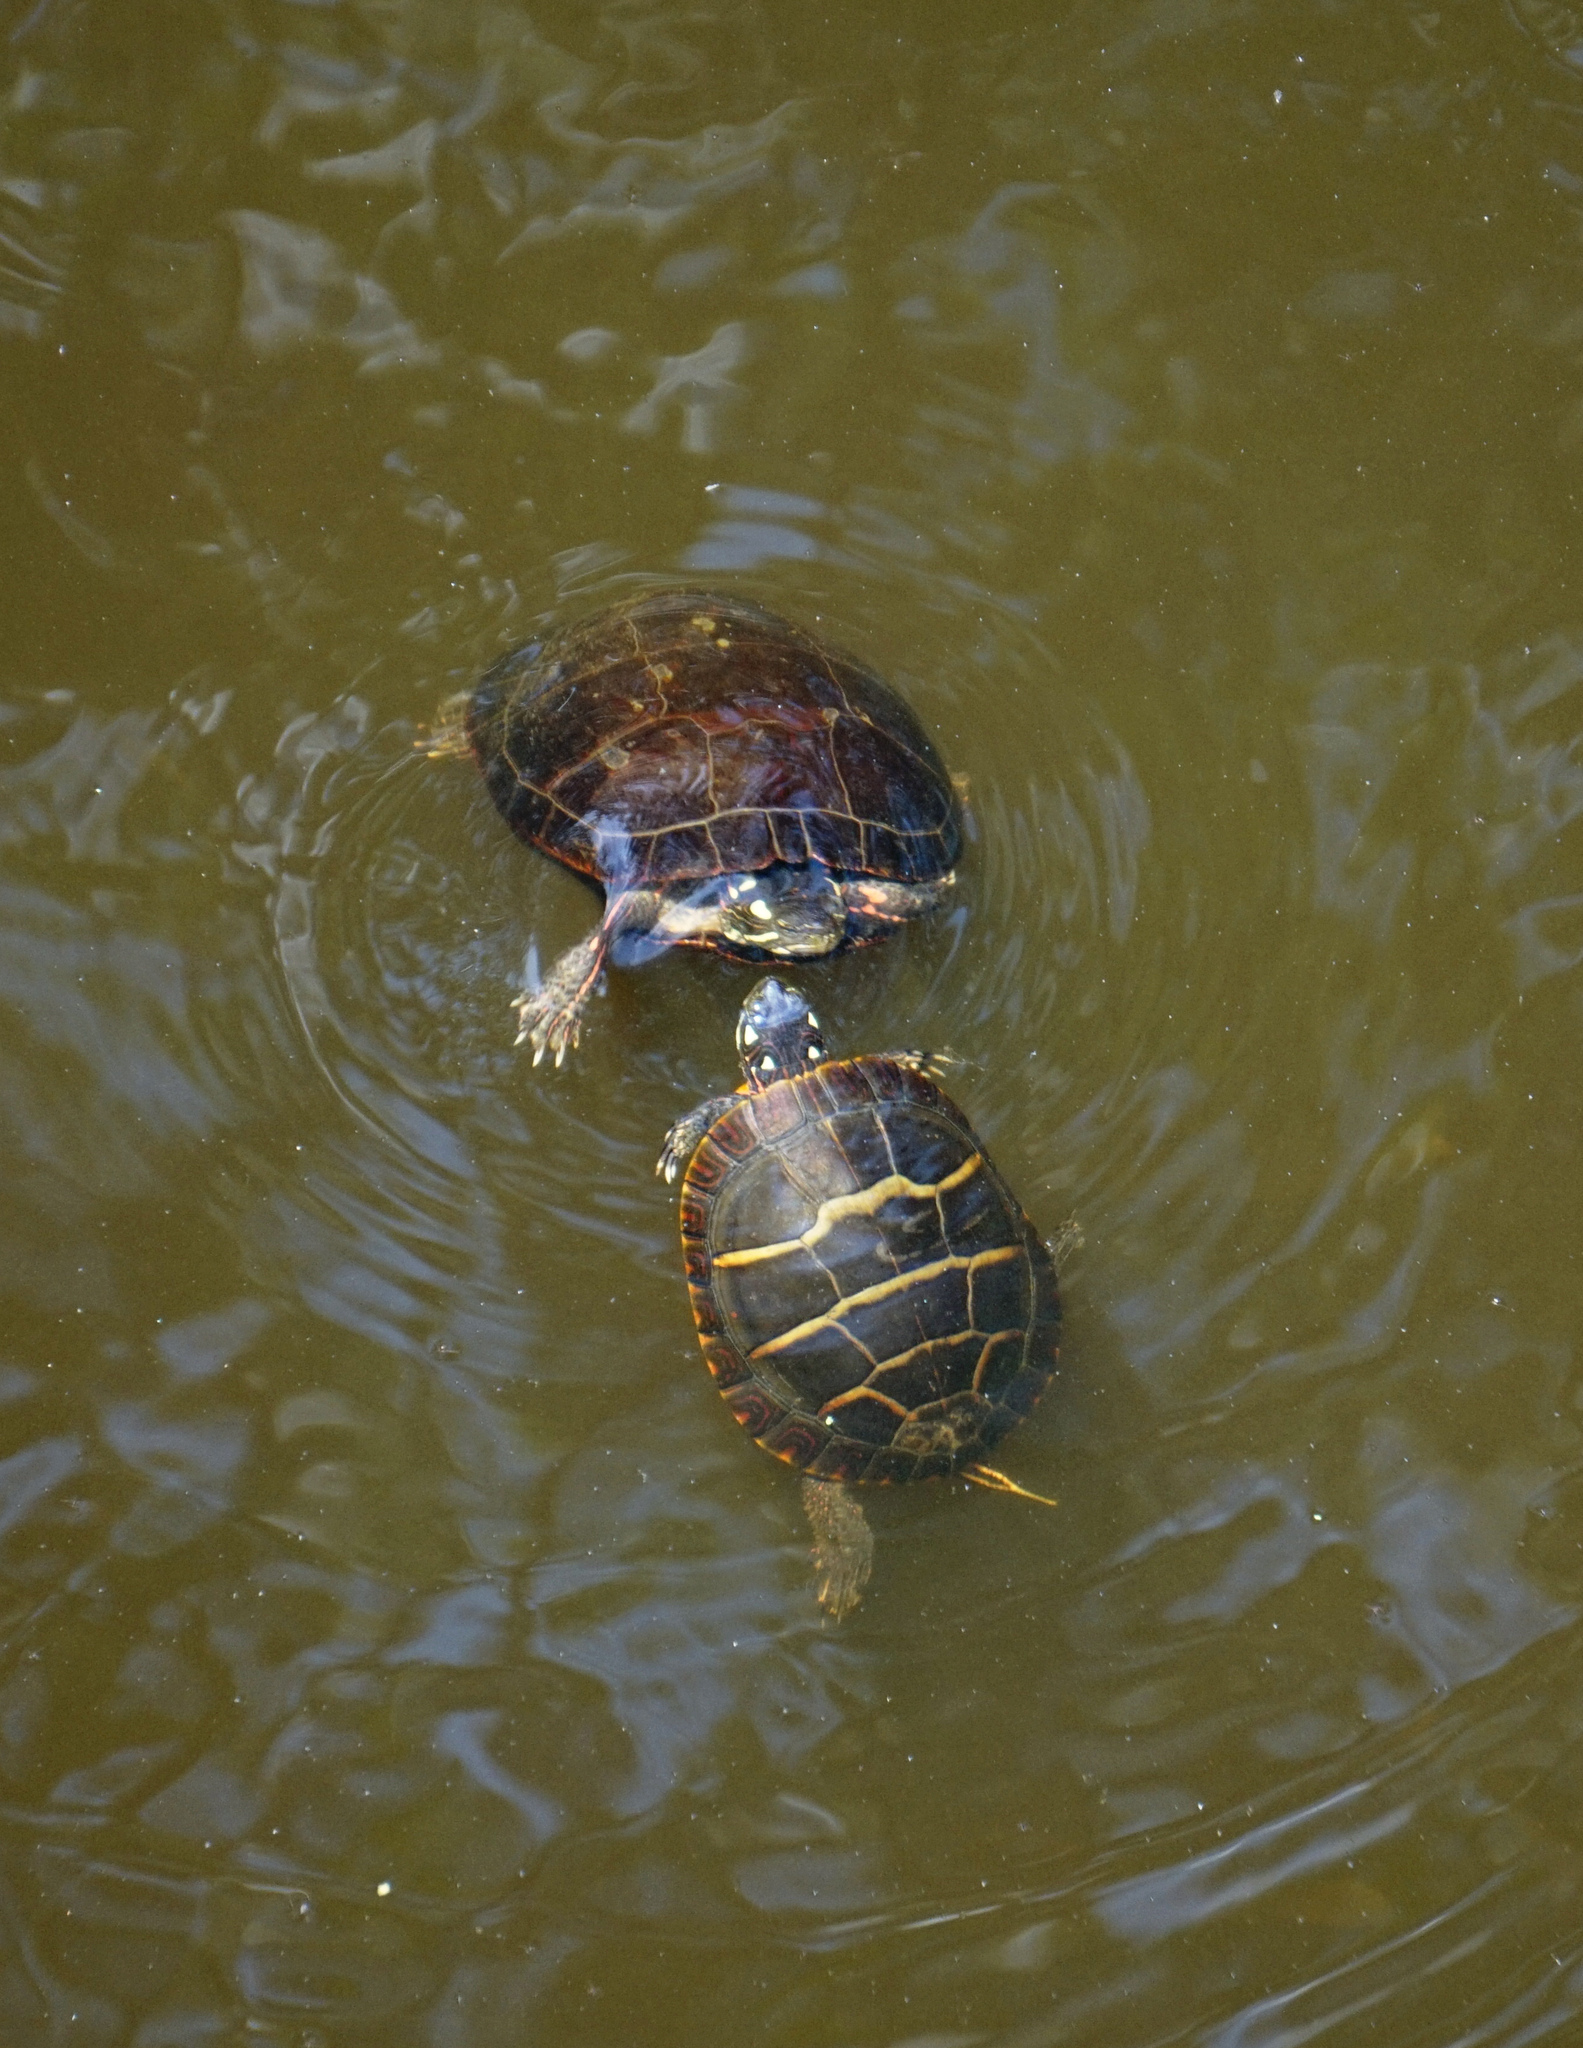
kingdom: Animalia
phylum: Chordata
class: Testudines
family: Emydidae
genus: Chrysemys
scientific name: Chrysemys picta
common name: Painted turtle
